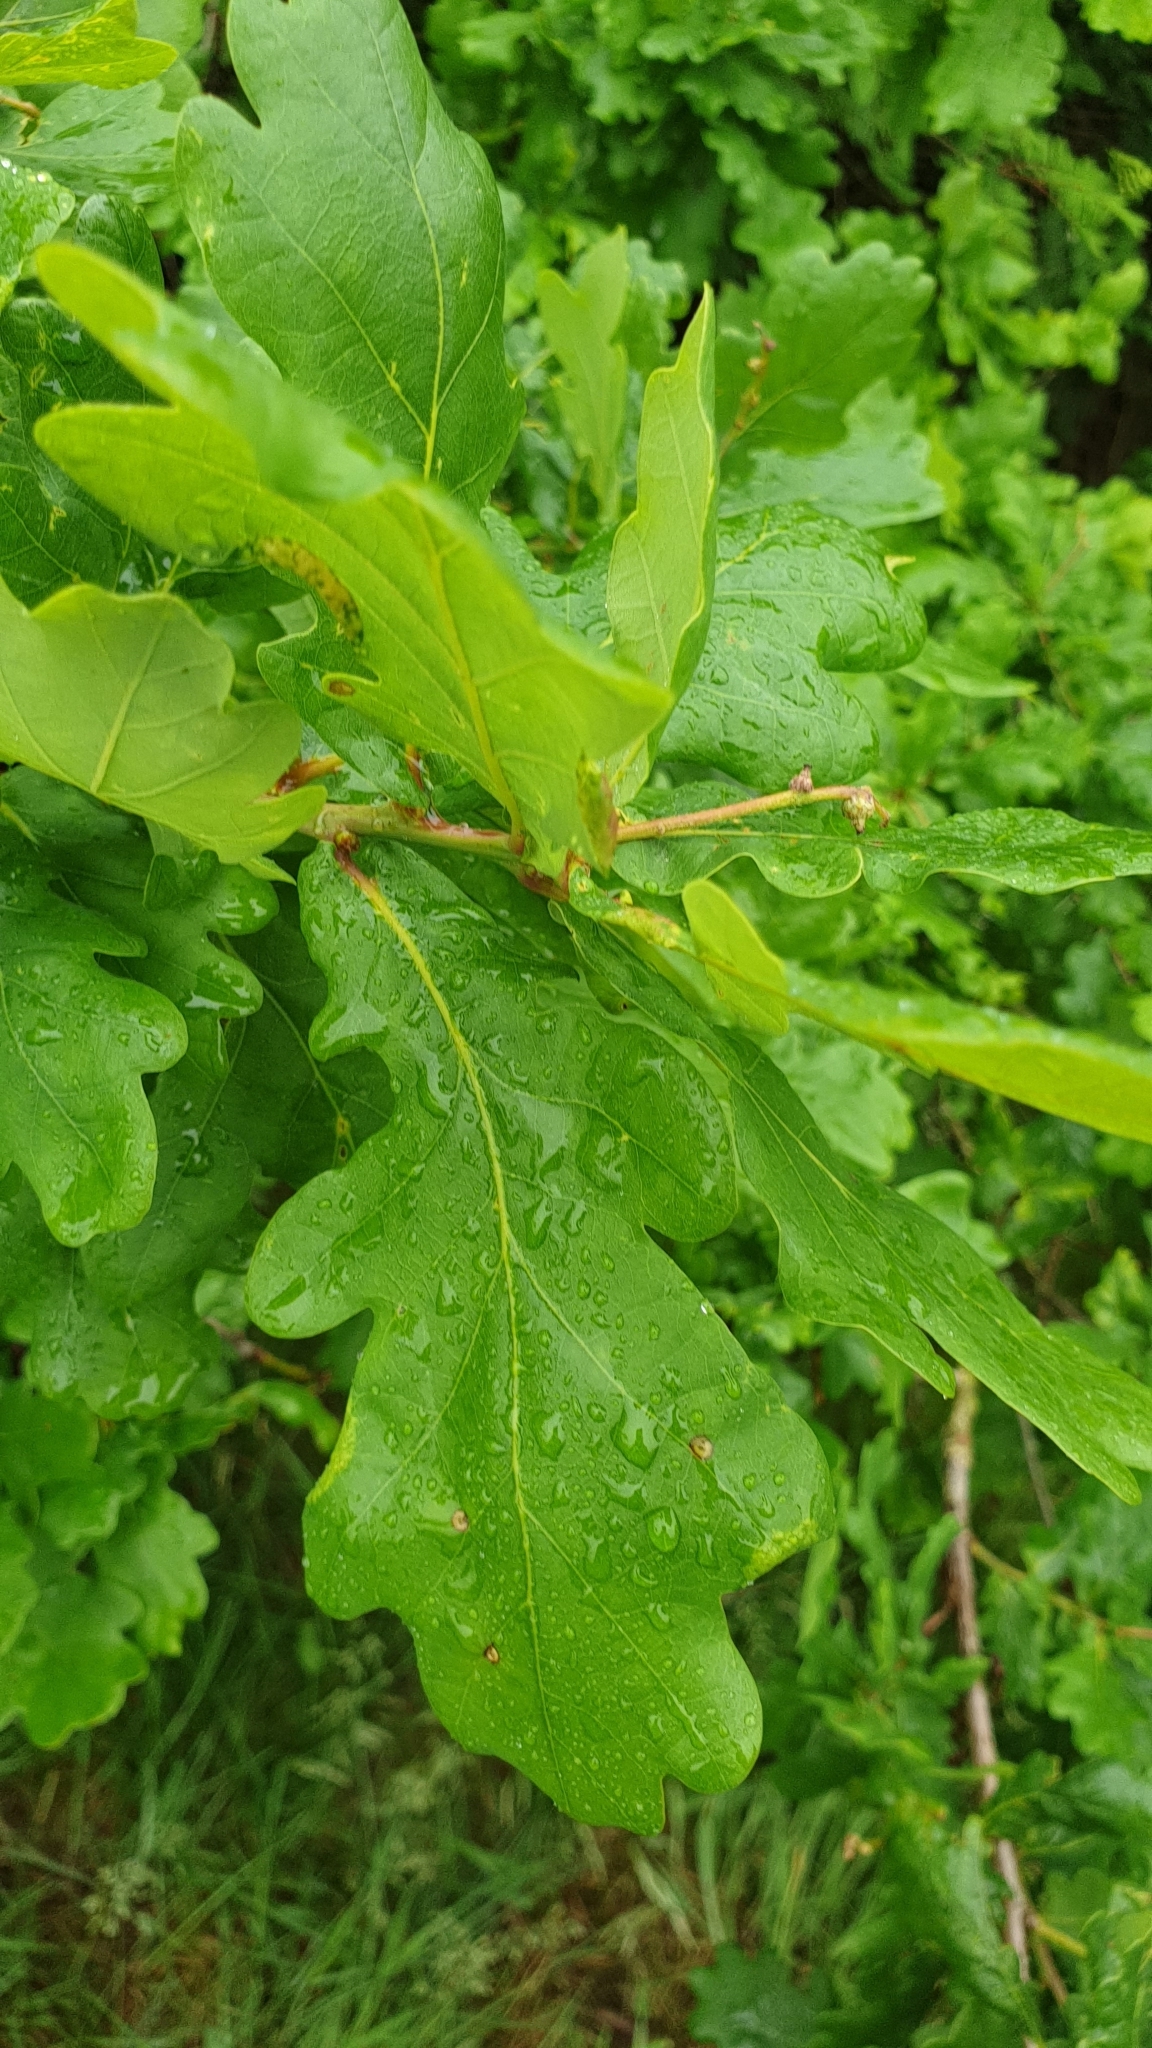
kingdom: Plantae
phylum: Tracheophyta
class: Magnoliopsida
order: Fagales
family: Fagaceae
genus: Quercus
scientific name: Quercus robur
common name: Pedunculate oak
